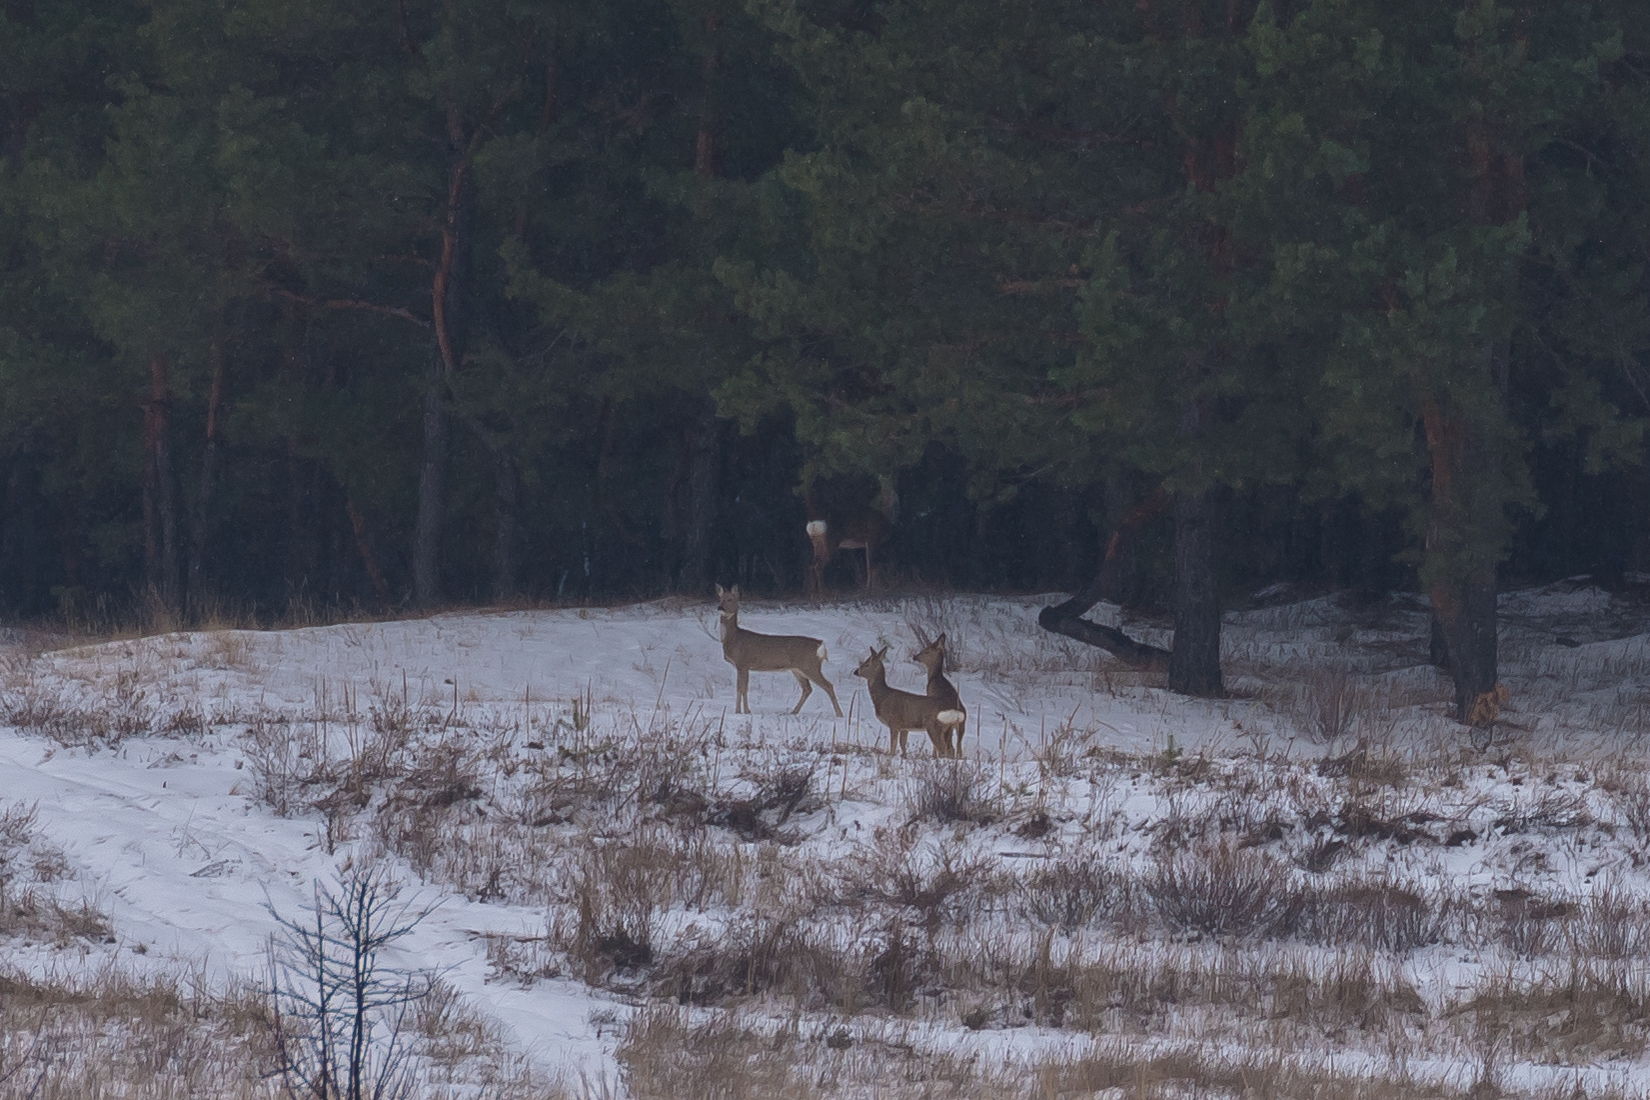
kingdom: Animalia
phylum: Chordata
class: Mammalia
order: Artiodactyla
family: Cervidae
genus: Capreolus
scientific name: Capreolus capreolus
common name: Western roe deer
